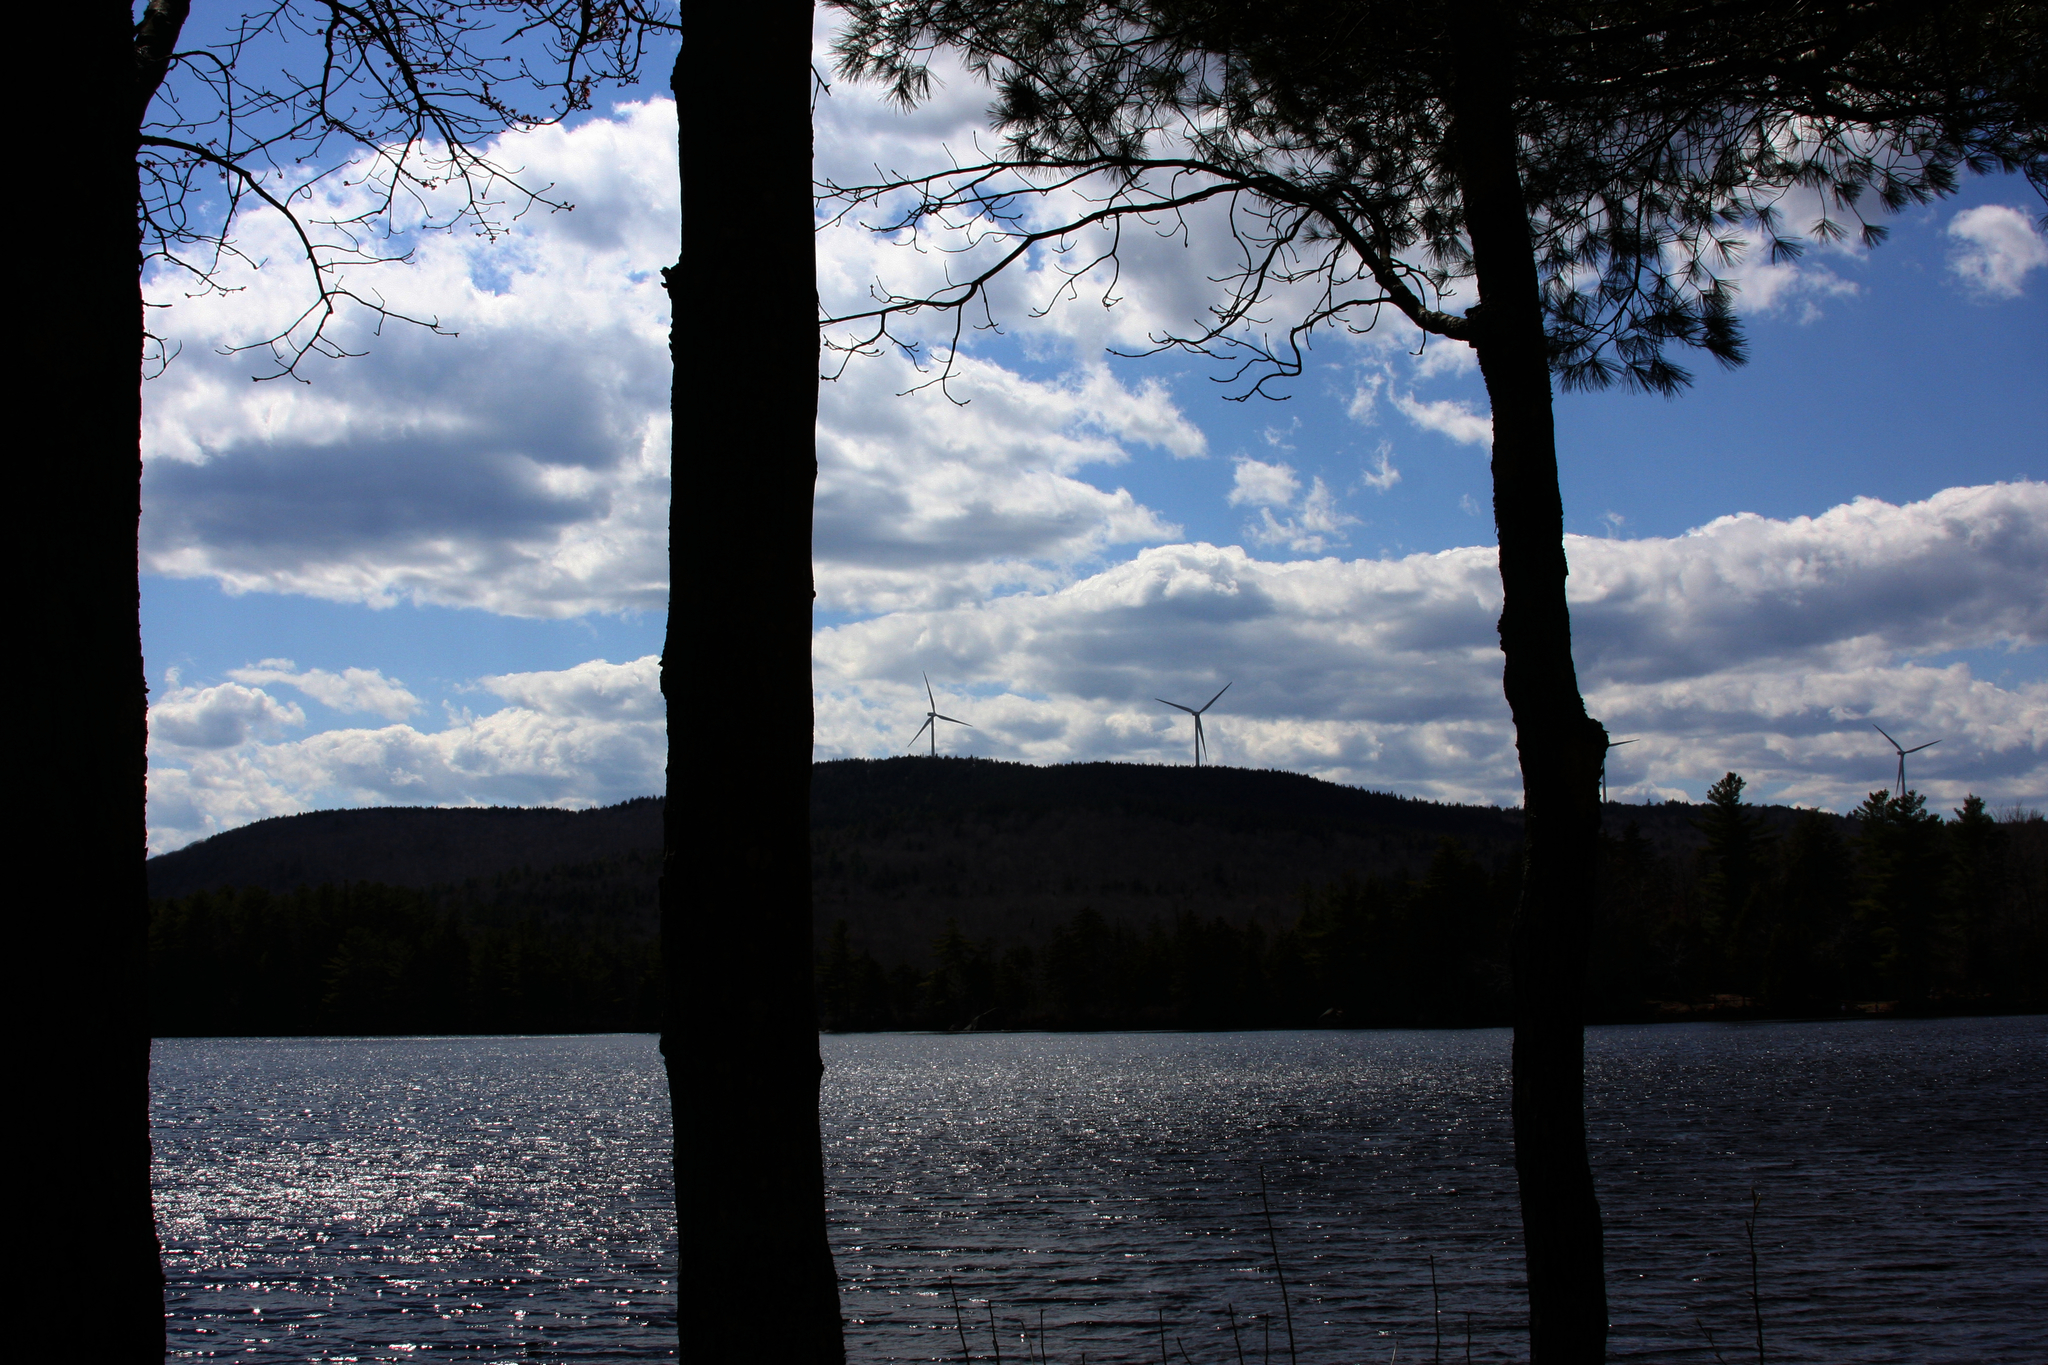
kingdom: Plantae
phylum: Tracheophyta
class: Pinopsida
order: Pinales
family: Pinaceae
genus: Pinus
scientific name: Pinus strobus
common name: Weymouth pine
